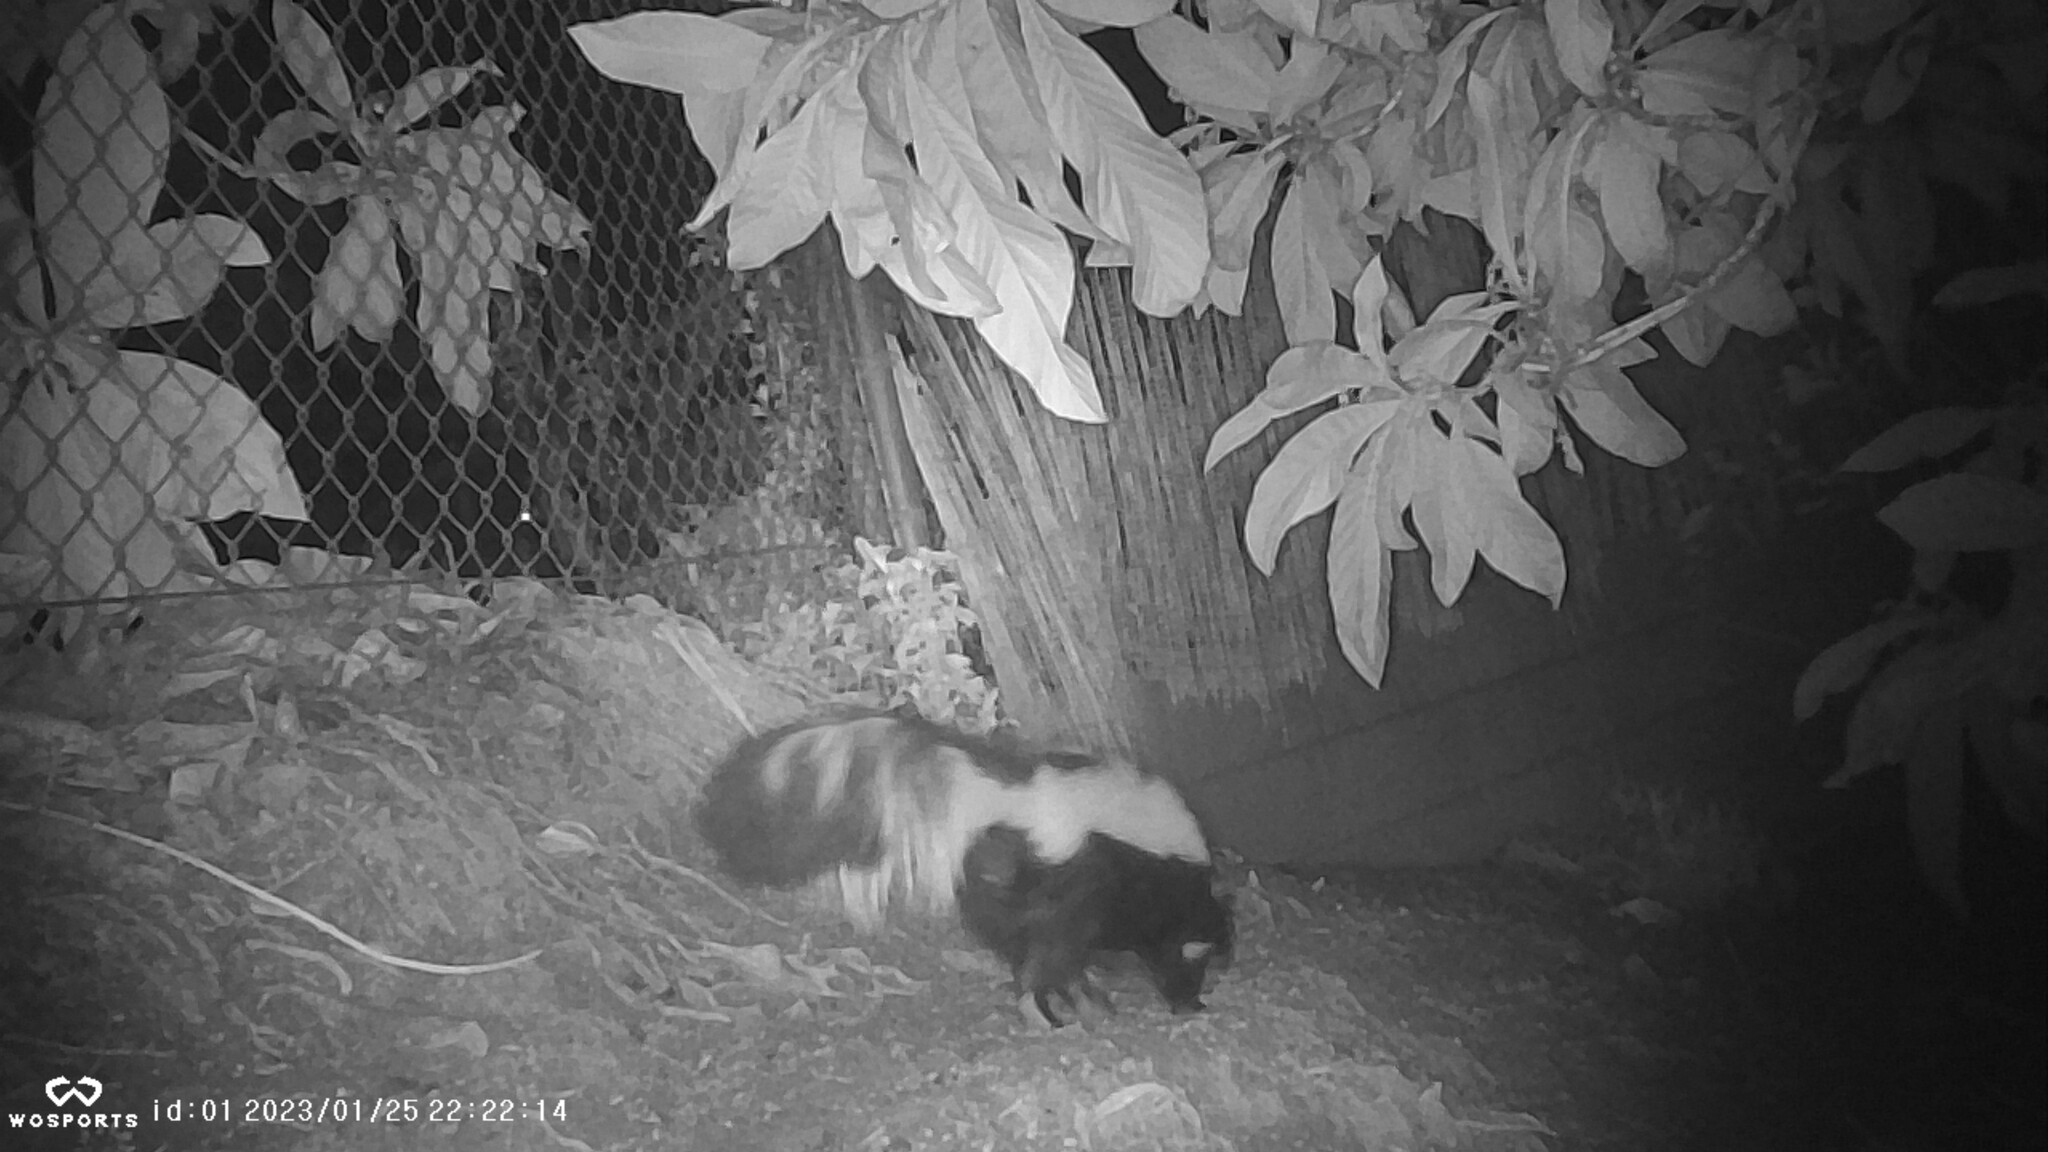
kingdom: Animalia
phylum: Chordata
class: Mammalia
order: Carnivora
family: Mephitidae
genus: Mephitis
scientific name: Mephitis mephitis
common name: Striped skunk
